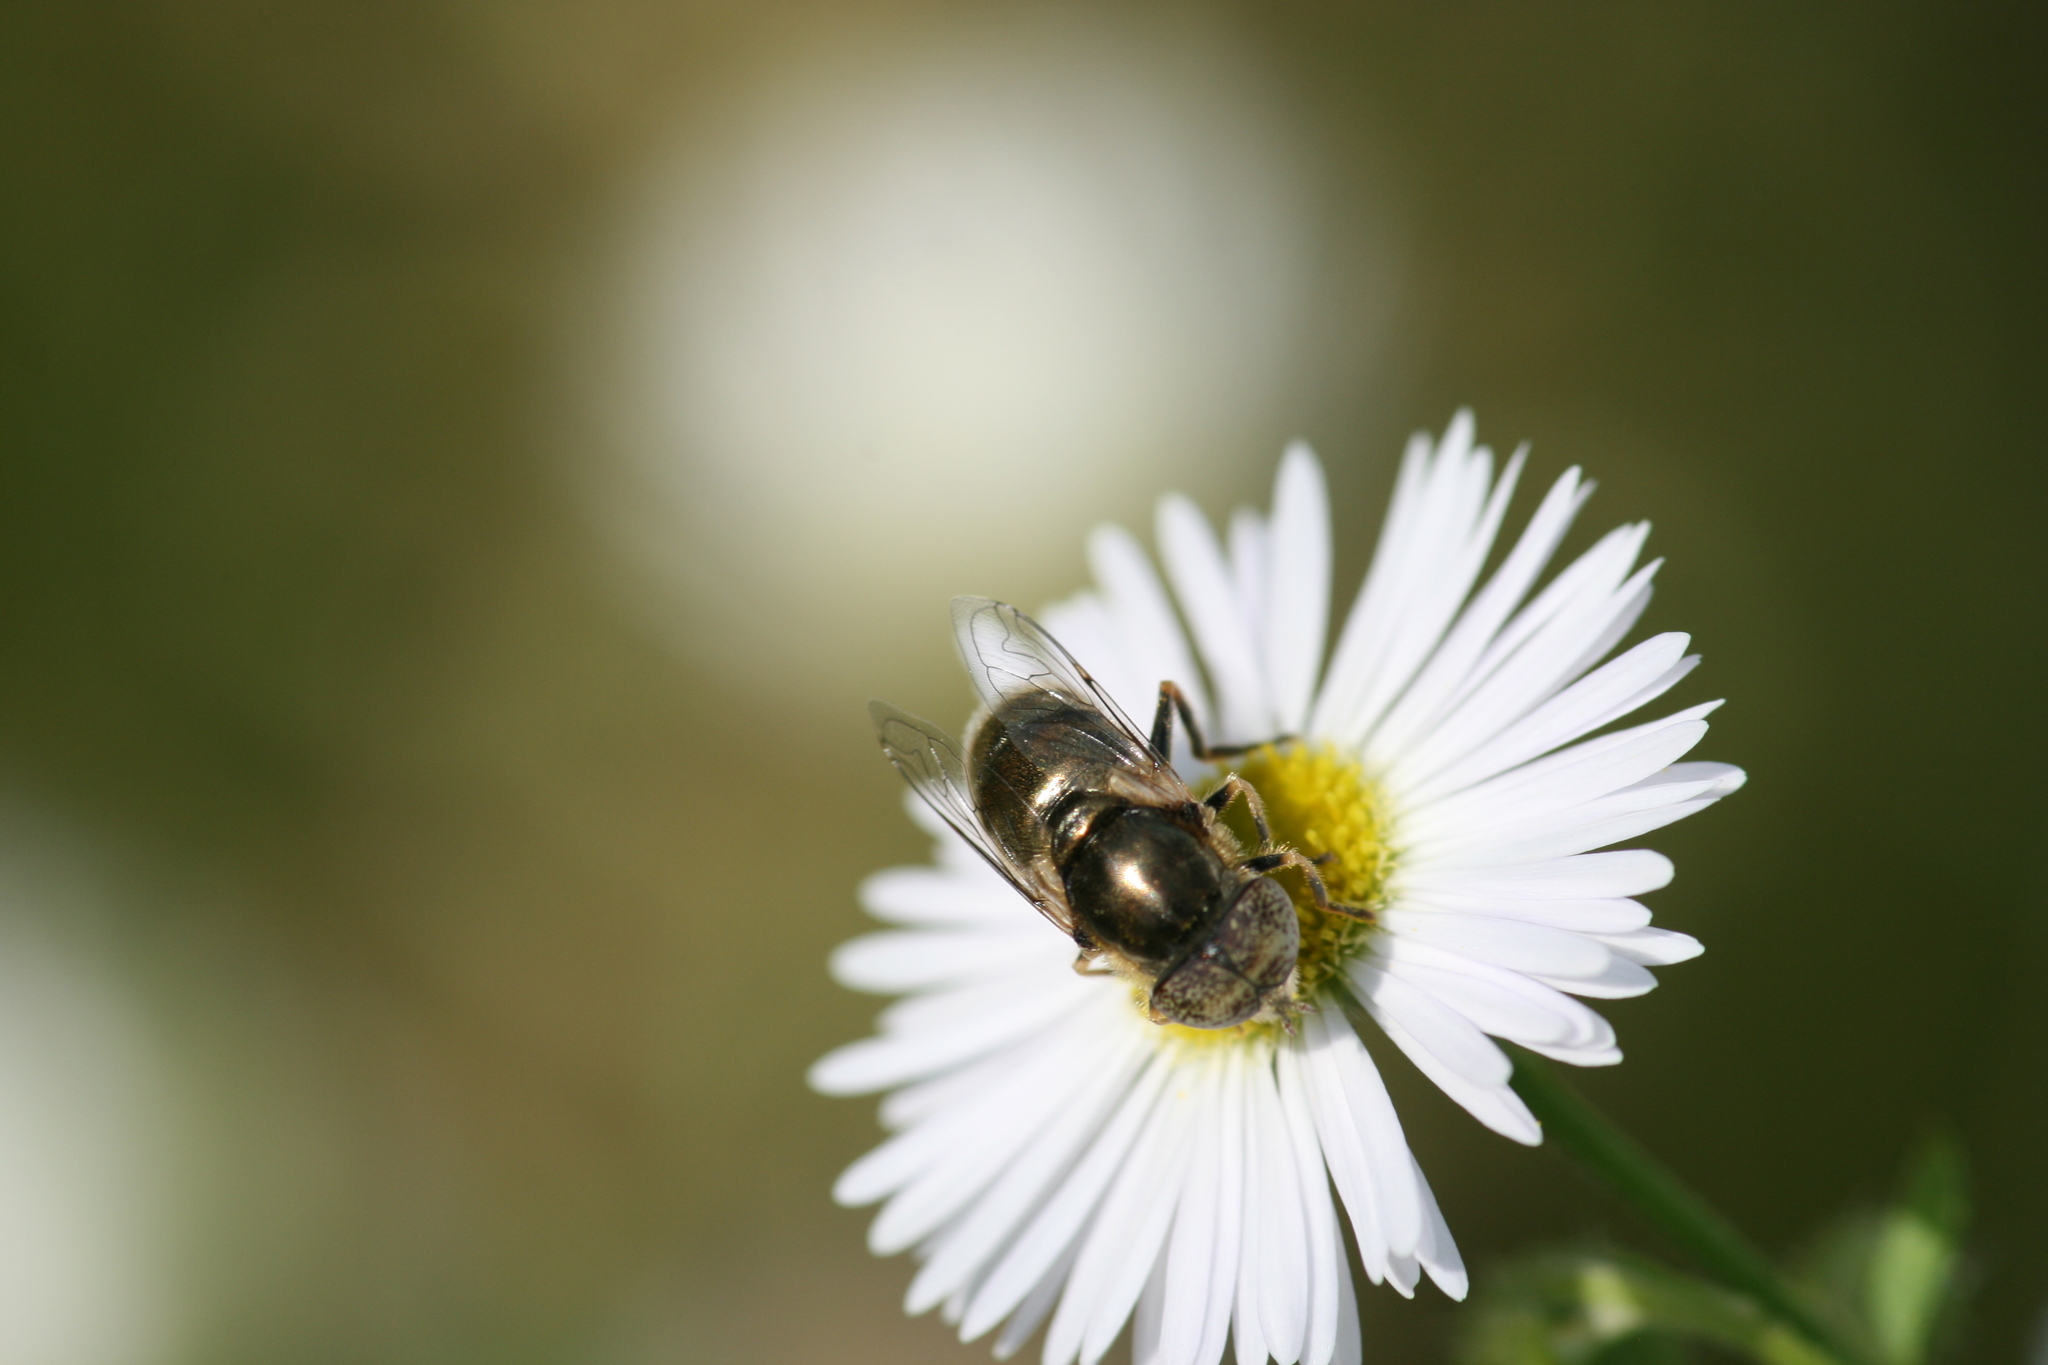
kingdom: Animalia
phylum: Arthropoda
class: Insecta
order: Diptera
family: Syrphidae
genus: Eristalinus
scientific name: Eristalinus aeneus
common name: Syrphid fly
